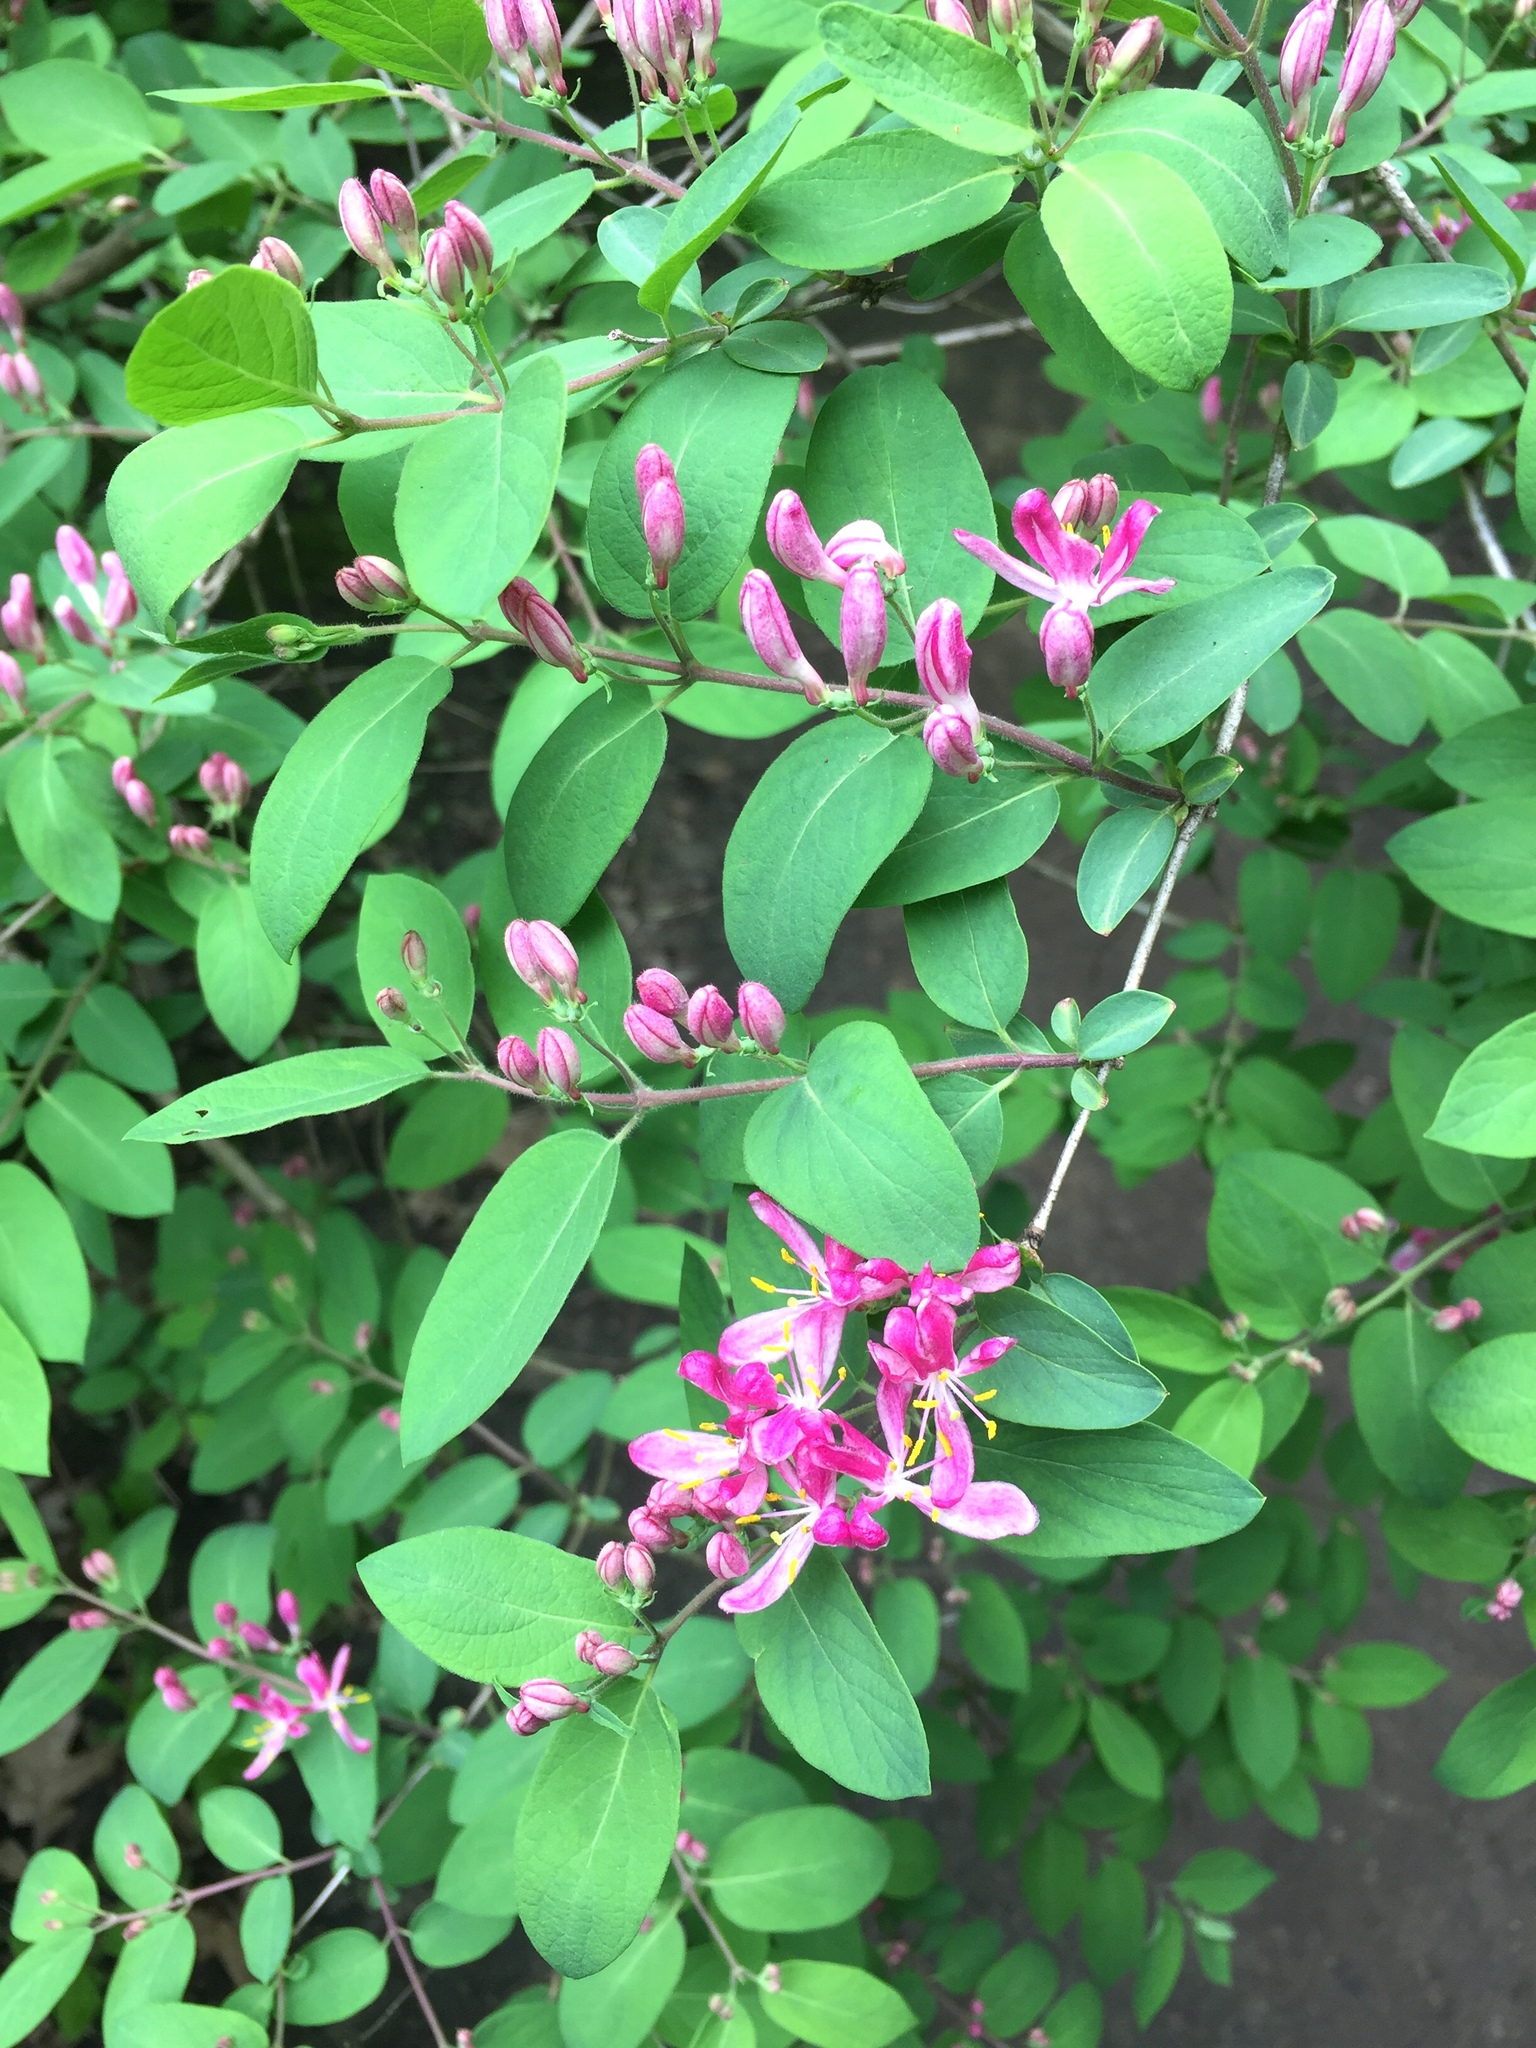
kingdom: Plantae
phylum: Tracheophyta
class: Magnoliopsida
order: Dipsacales
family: Caprifoliaceae
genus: Lonicera
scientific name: Lonicera tatarica
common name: Tatarian honeysuckle
